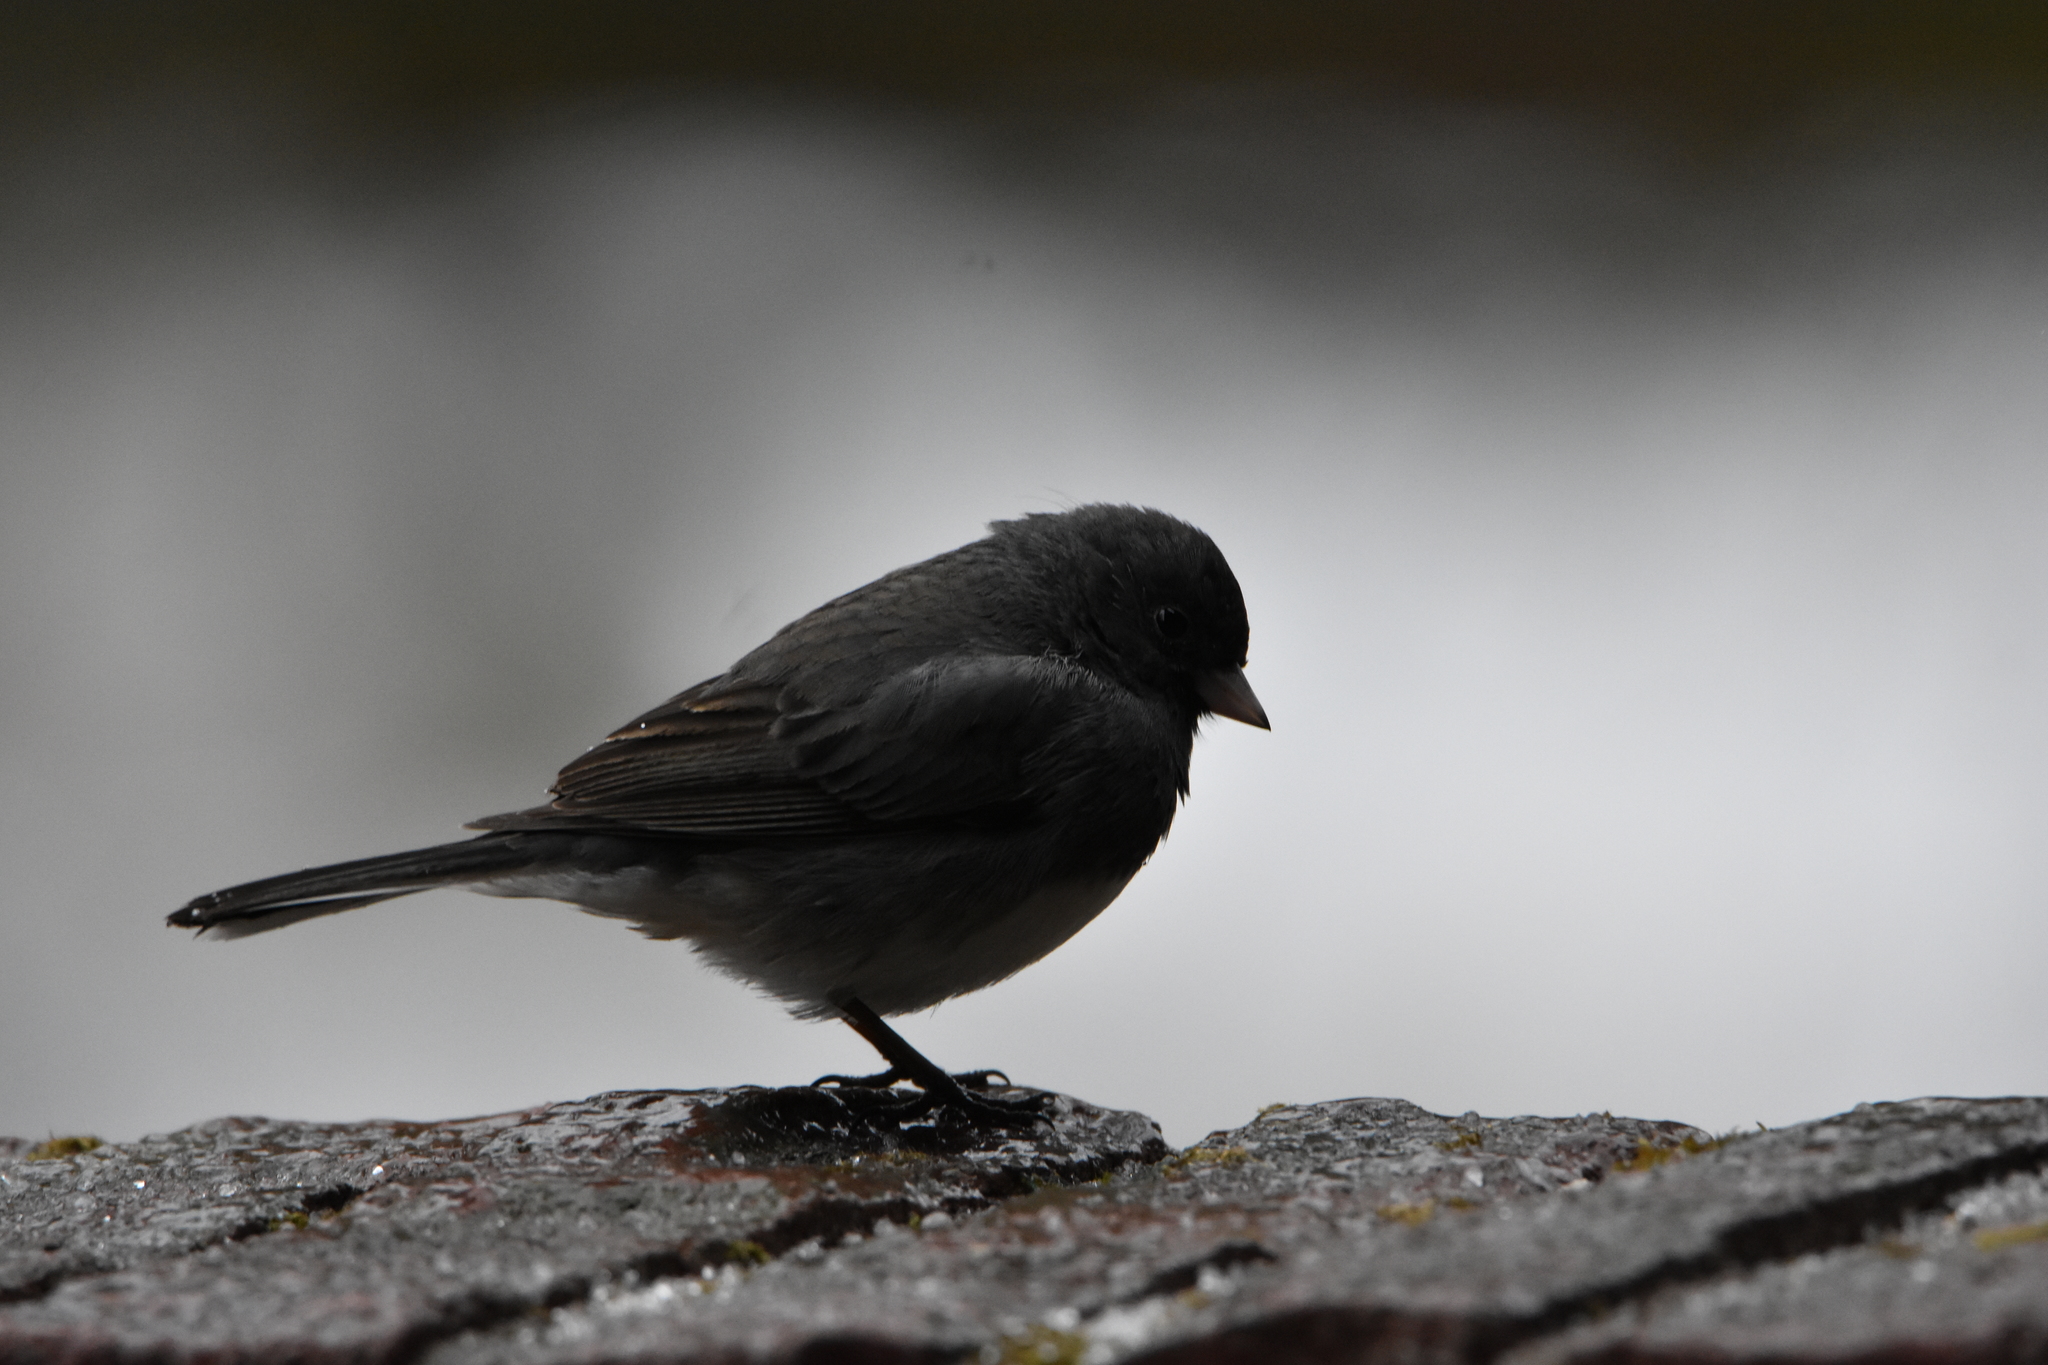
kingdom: Animalia
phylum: Chordata
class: Aves
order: Passeriformes
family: Passerellidae
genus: Junco
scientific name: Junco hyemalis
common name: Dark-eyed junco
